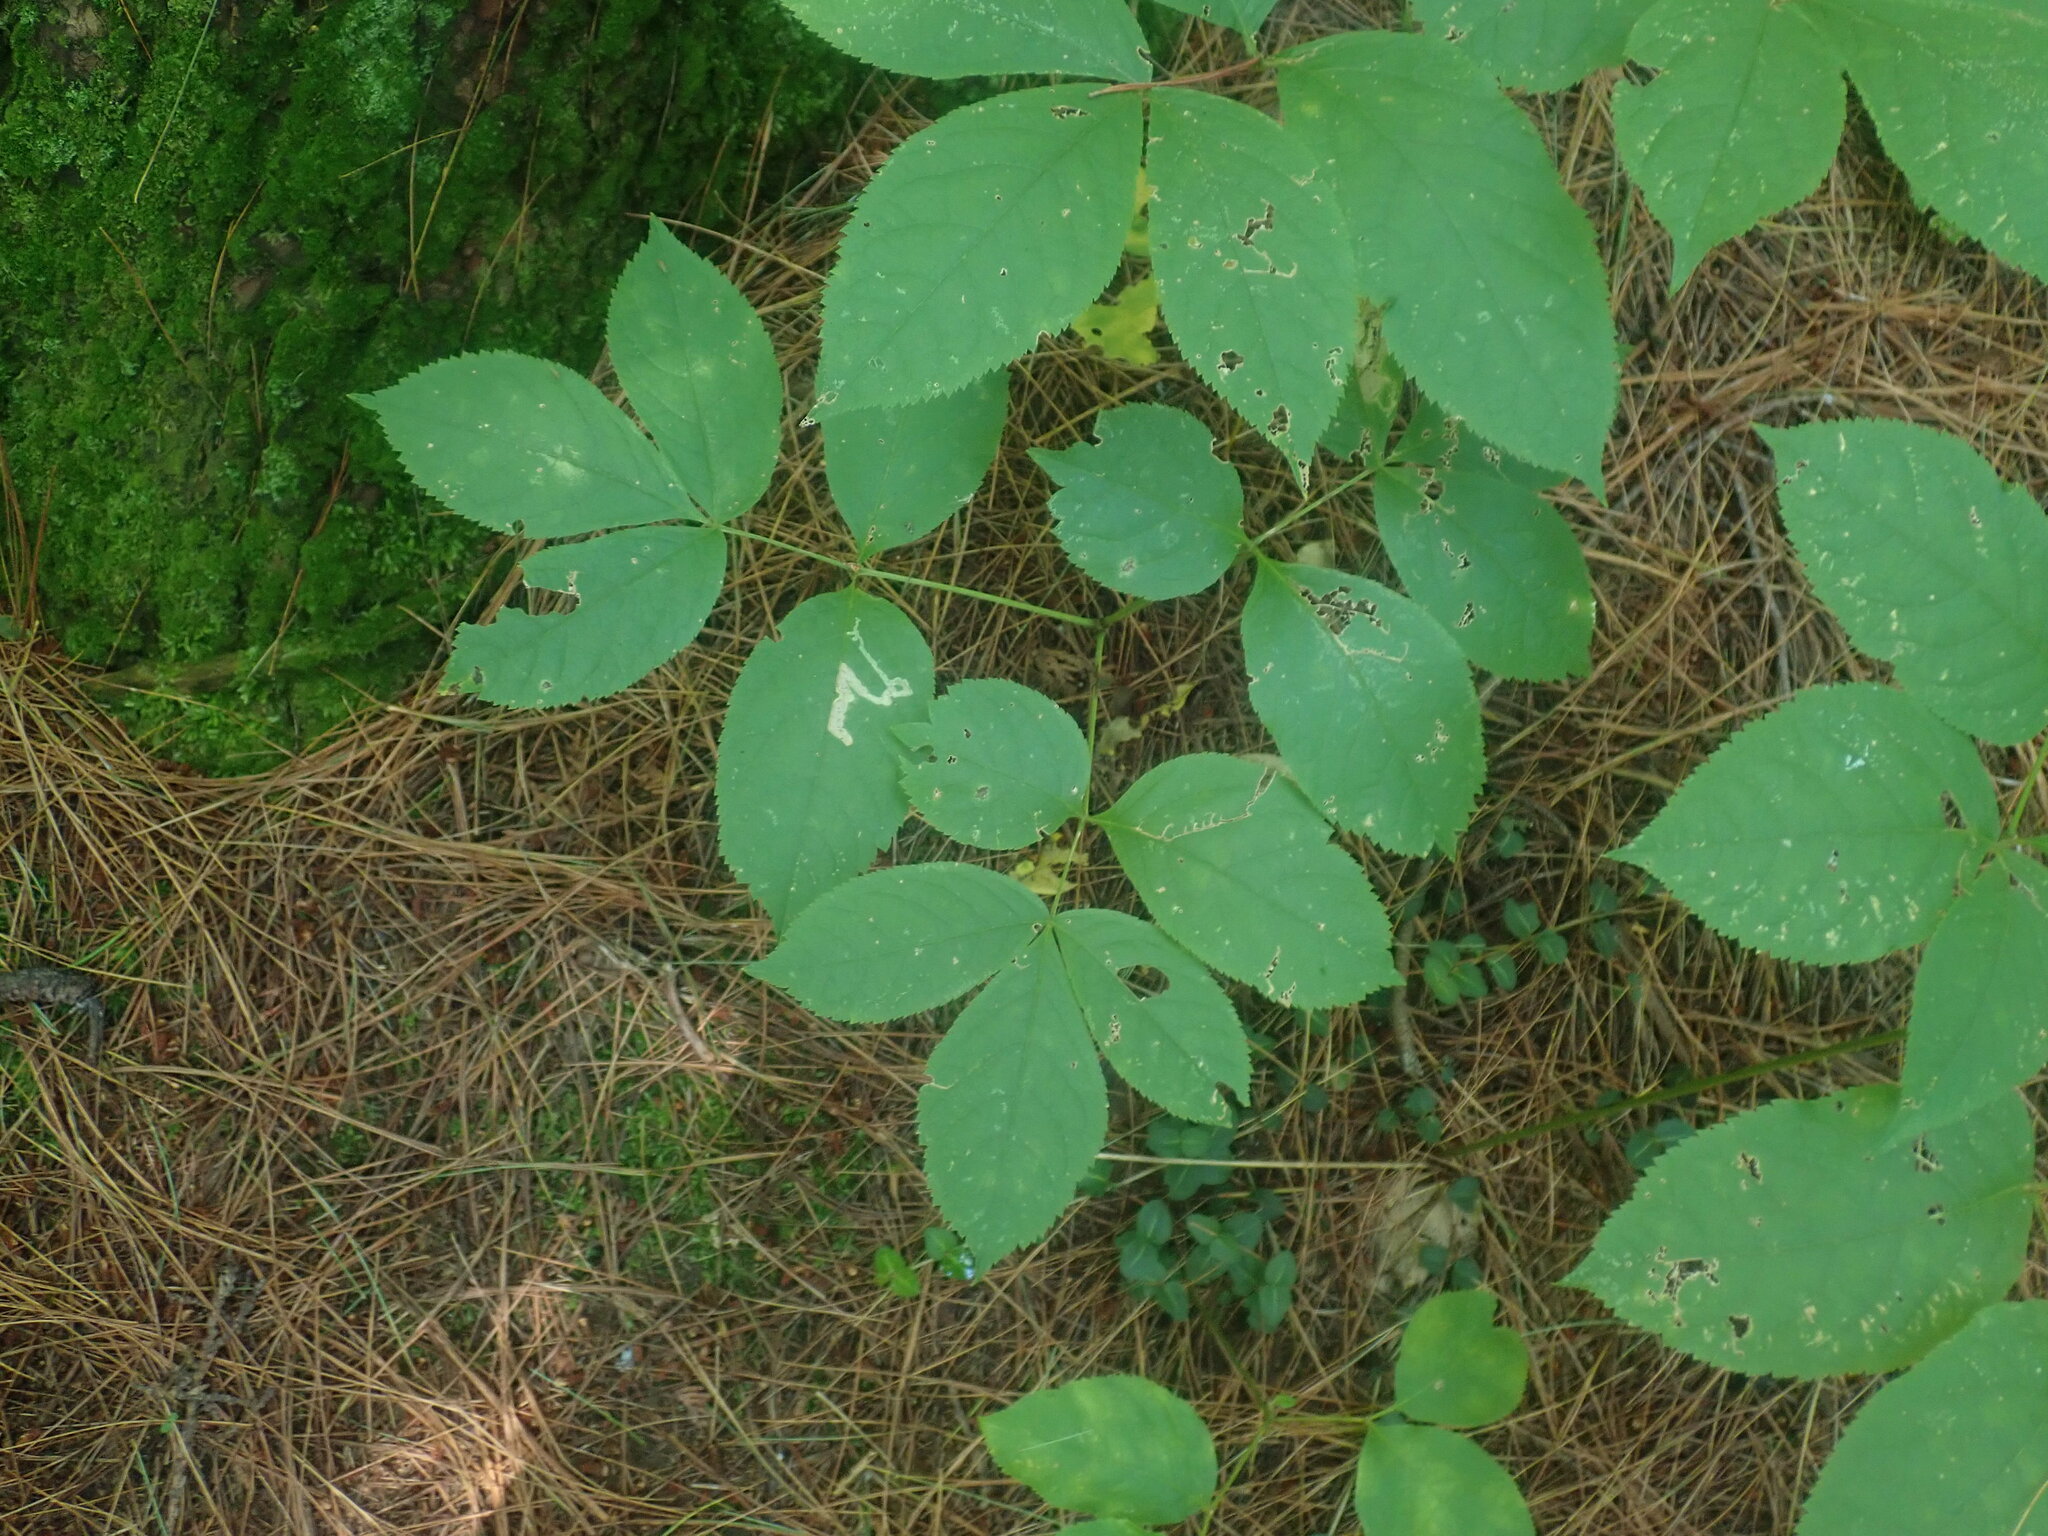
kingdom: Plantae
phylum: Tracheophyta
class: Magnoliopsida
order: Apiales
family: Araliaceae
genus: Aralia
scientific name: Aralia nudicaulis
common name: Wild sarsaparilla
